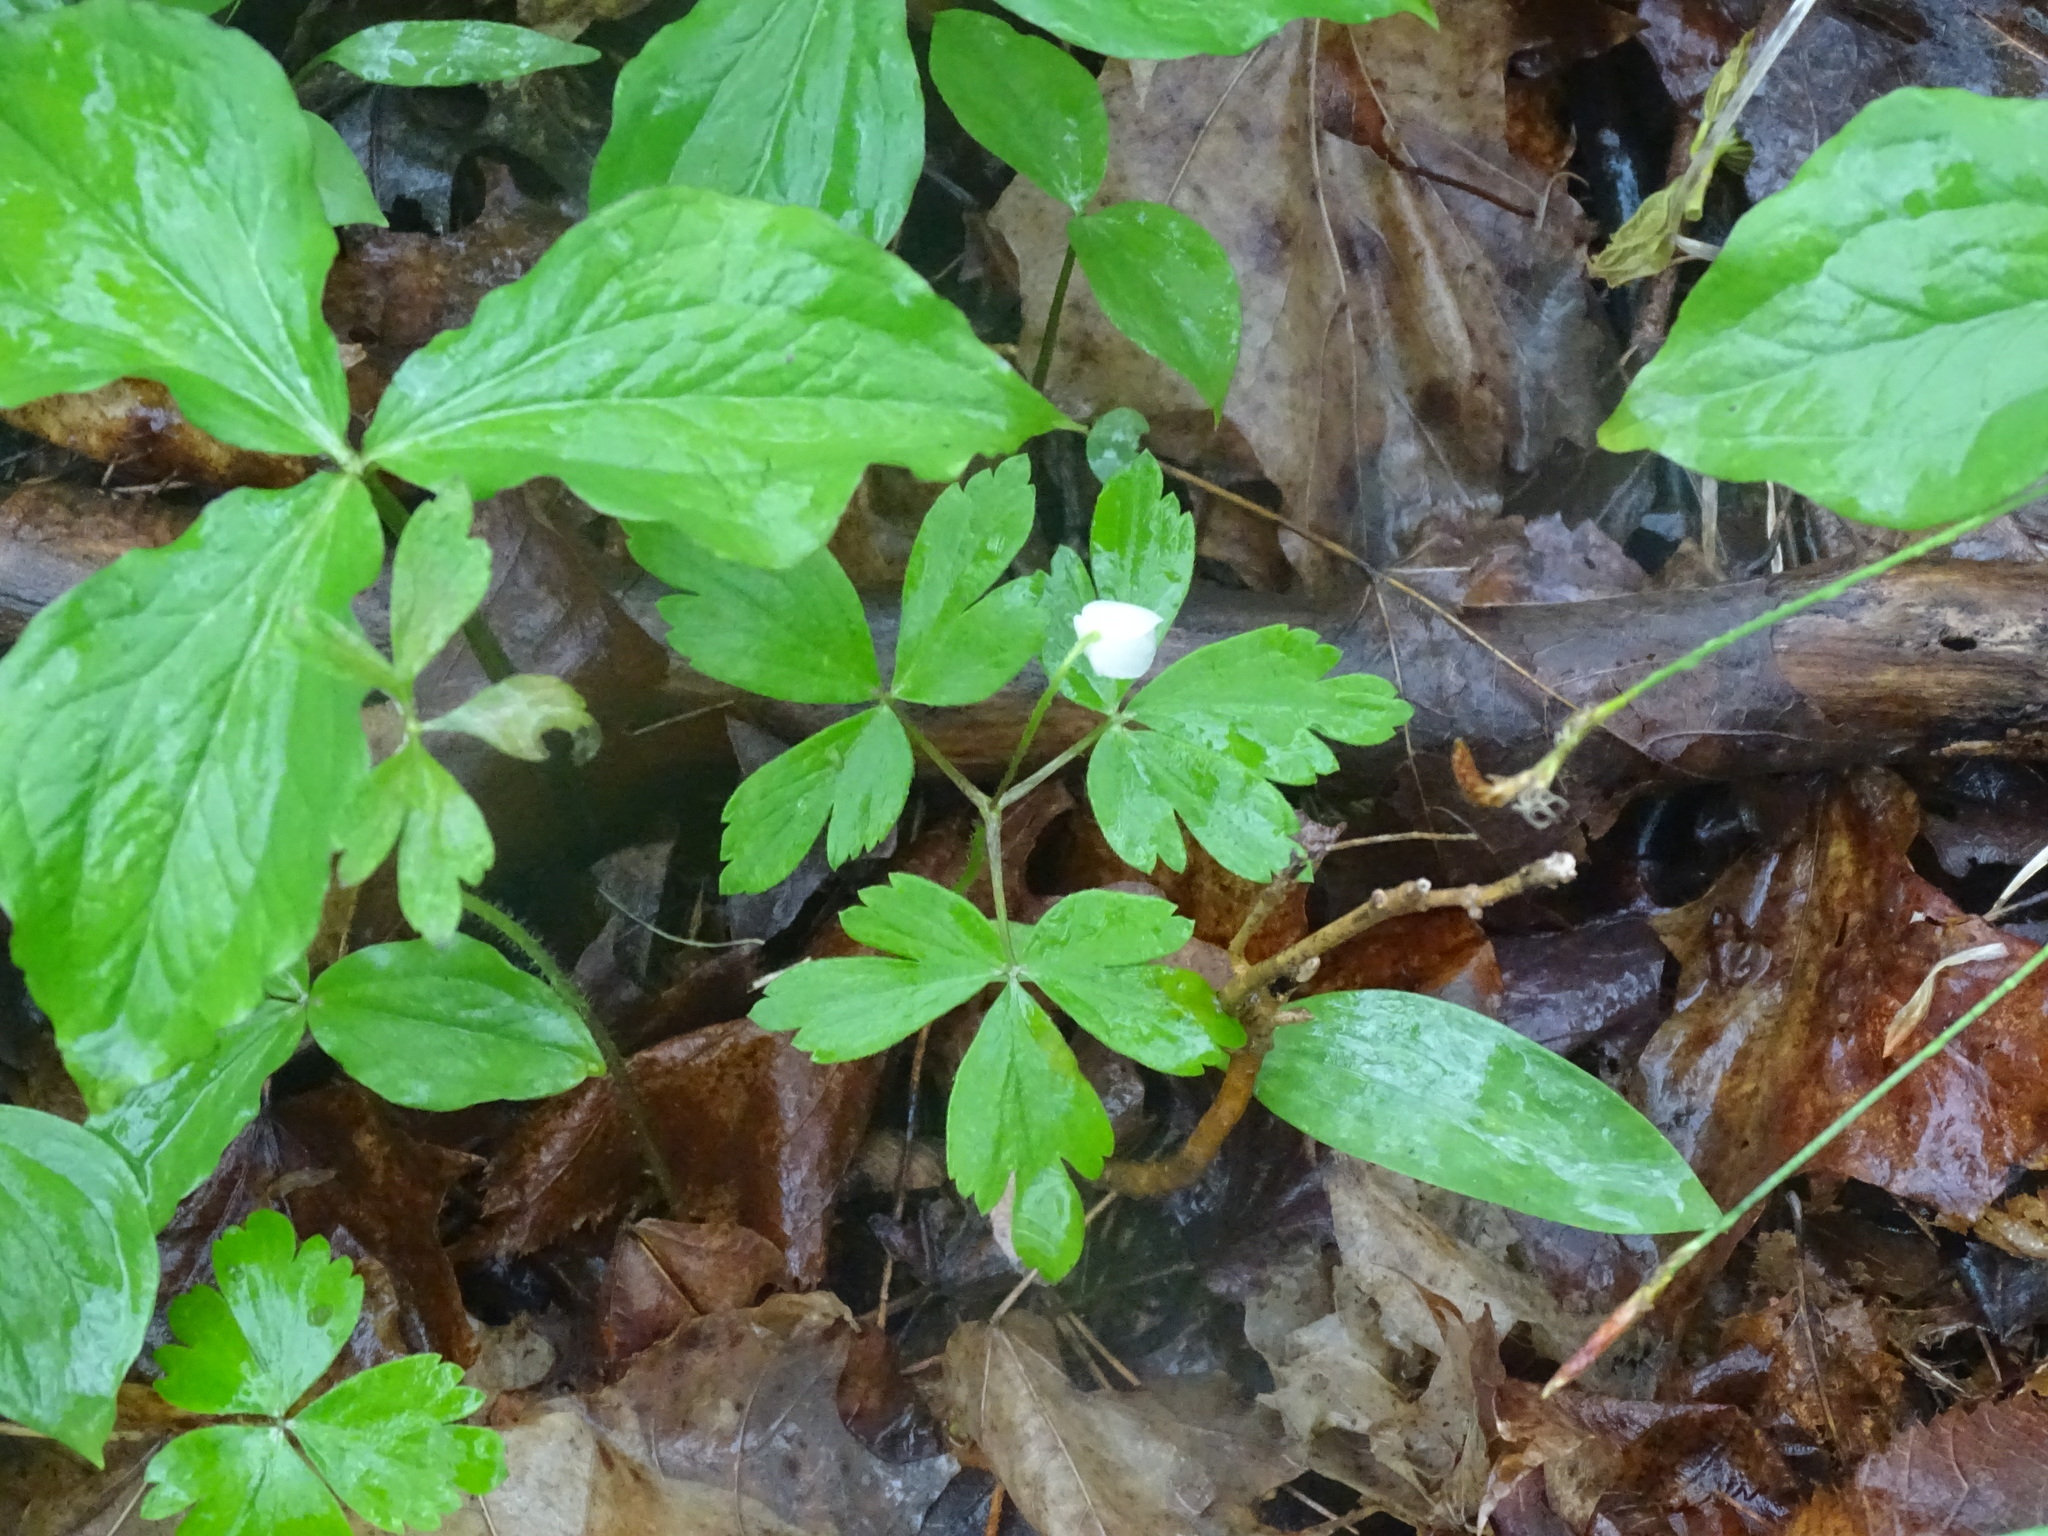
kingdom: Plantae
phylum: Tracheophyta
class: Magnoliopsida
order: Ranunculales
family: Ranunculaceae
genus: Anemone
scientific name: Anemone quinquefolia
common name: Wood anemone
